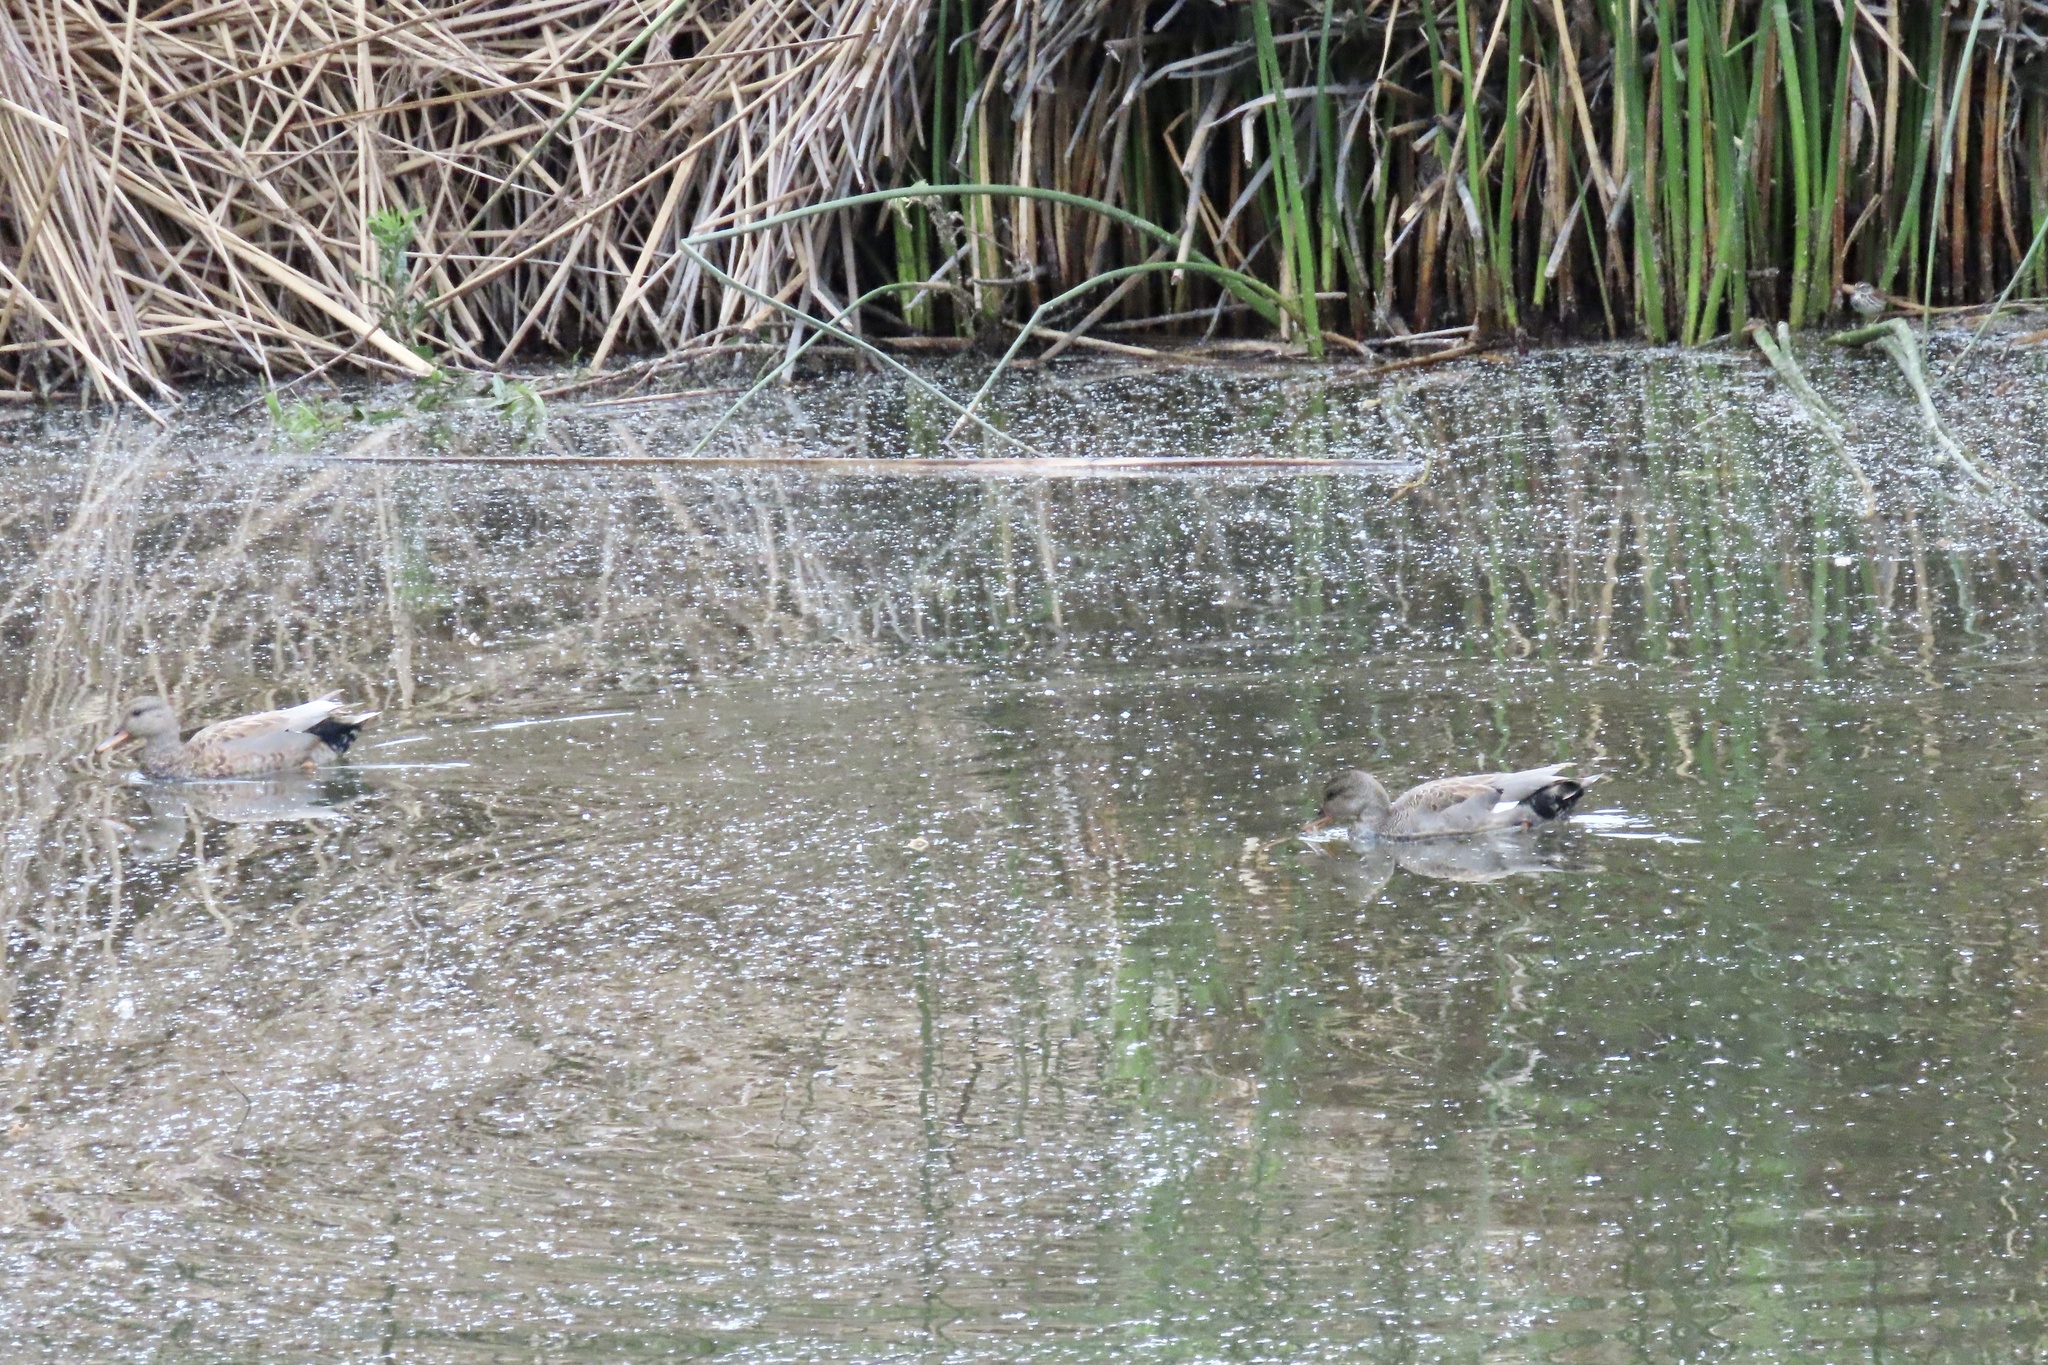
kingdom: Animalia
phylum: Chordata
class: Aves
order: Anseriformes
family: Anatidae
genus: Mareca
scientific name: Mareca strepera
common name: Gadwall
